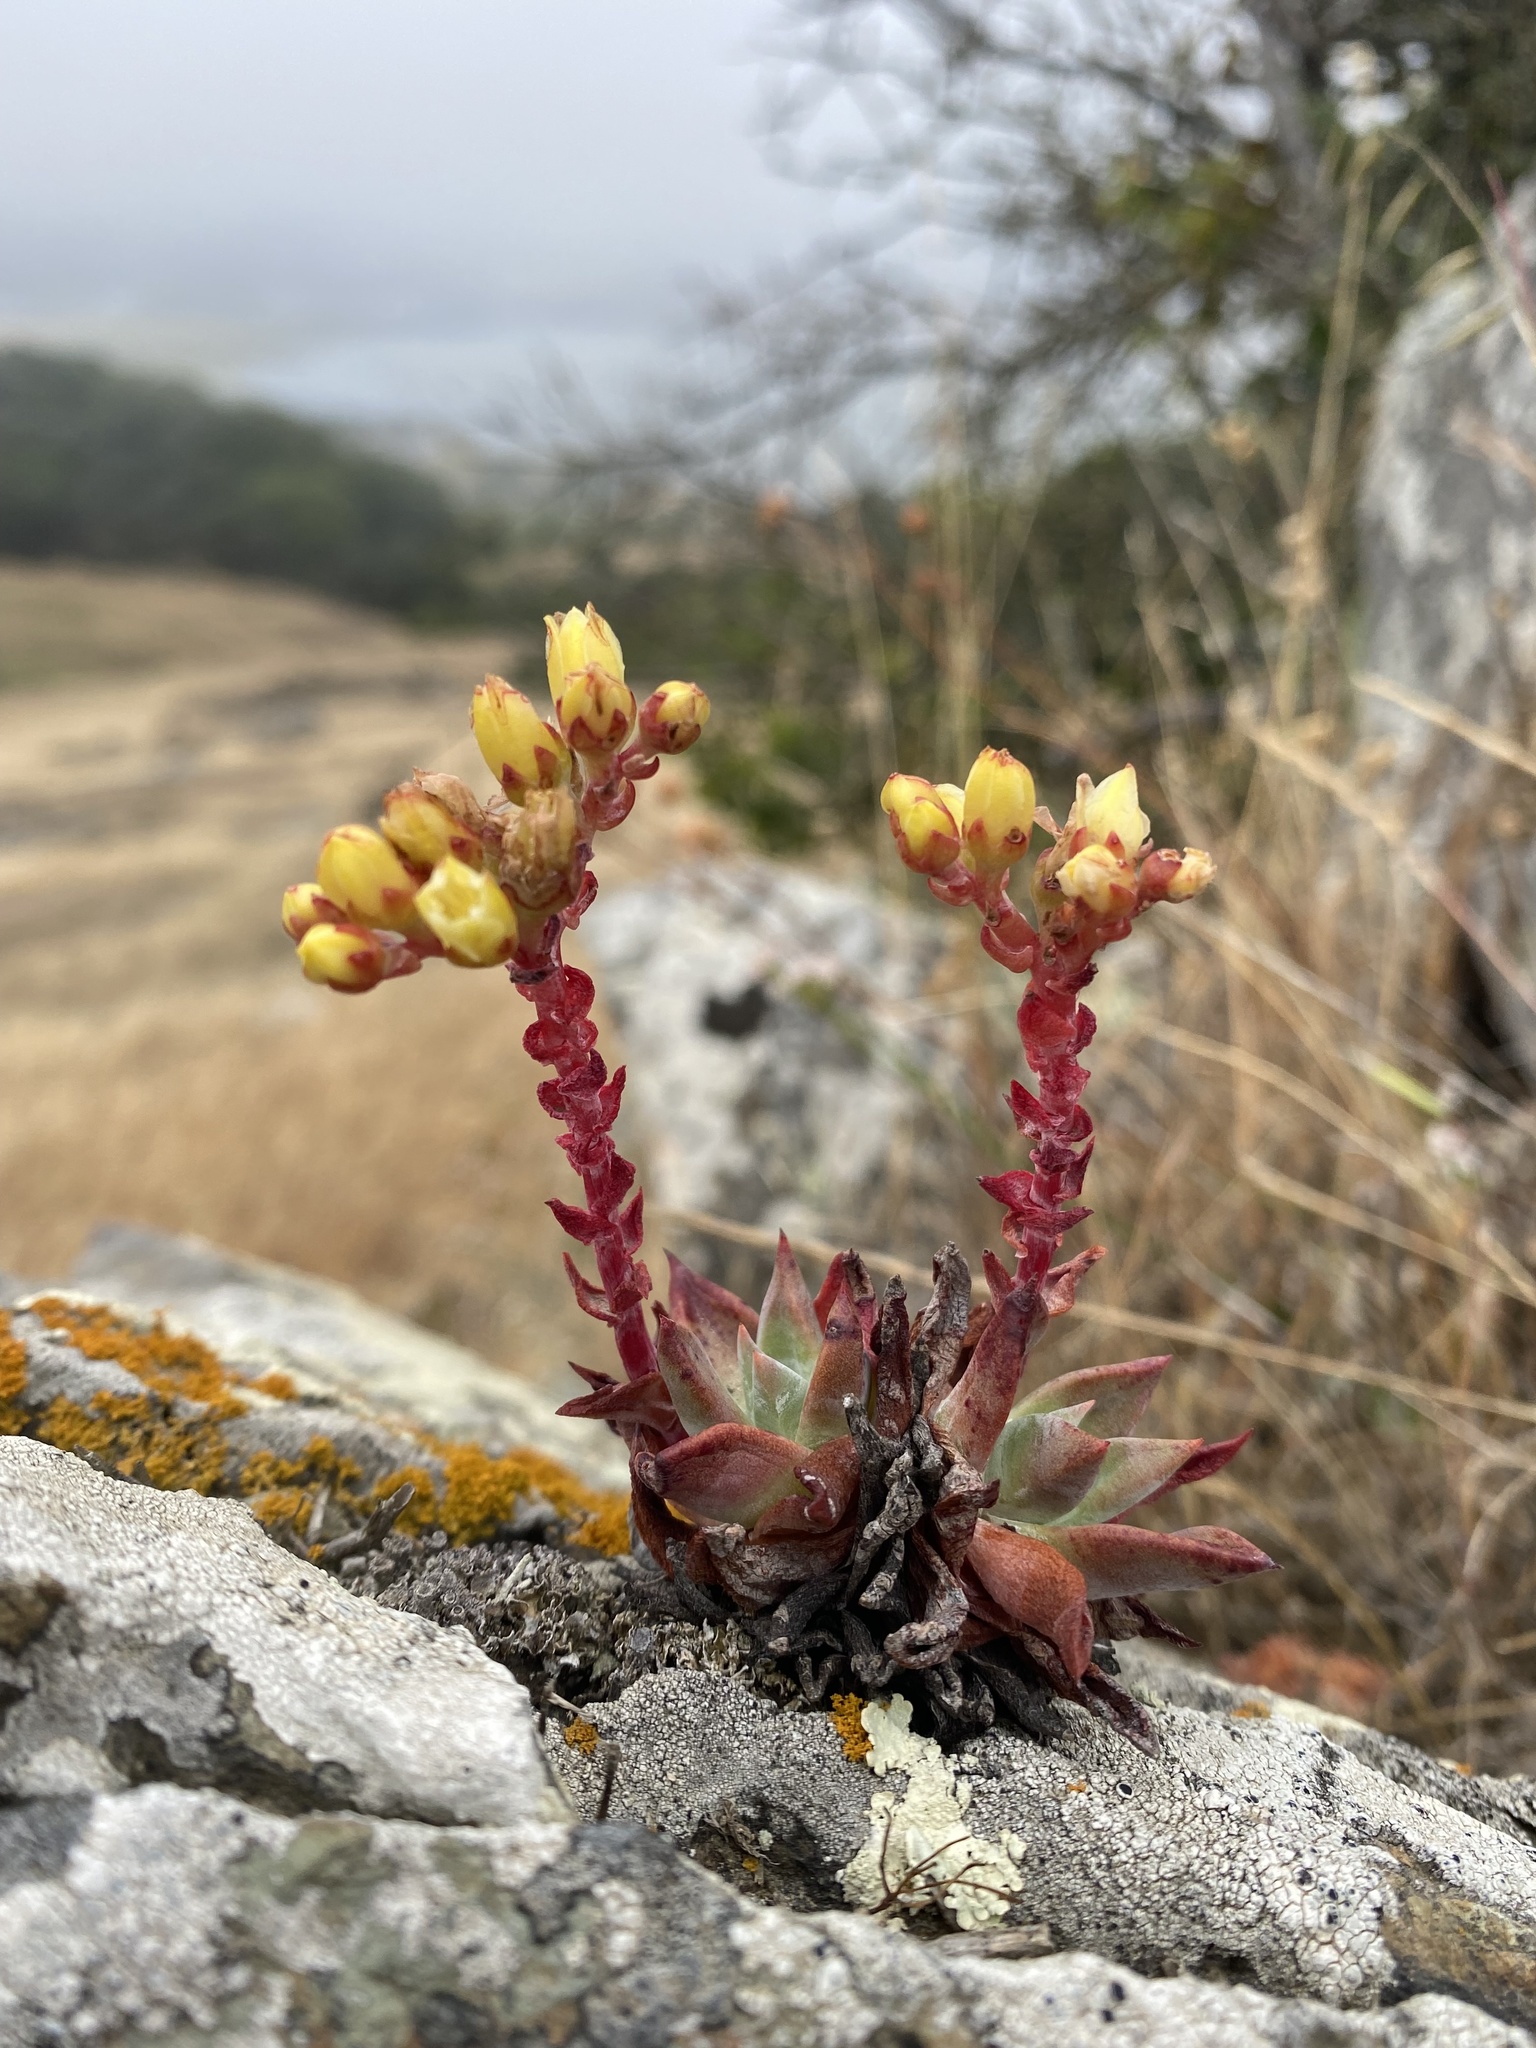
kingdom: Plantae
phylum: Tracheophyta
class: Magnoliopsida
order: Saxifragales
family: Crassulaceae
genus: Dudleya
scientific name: Dudleya farinosa
